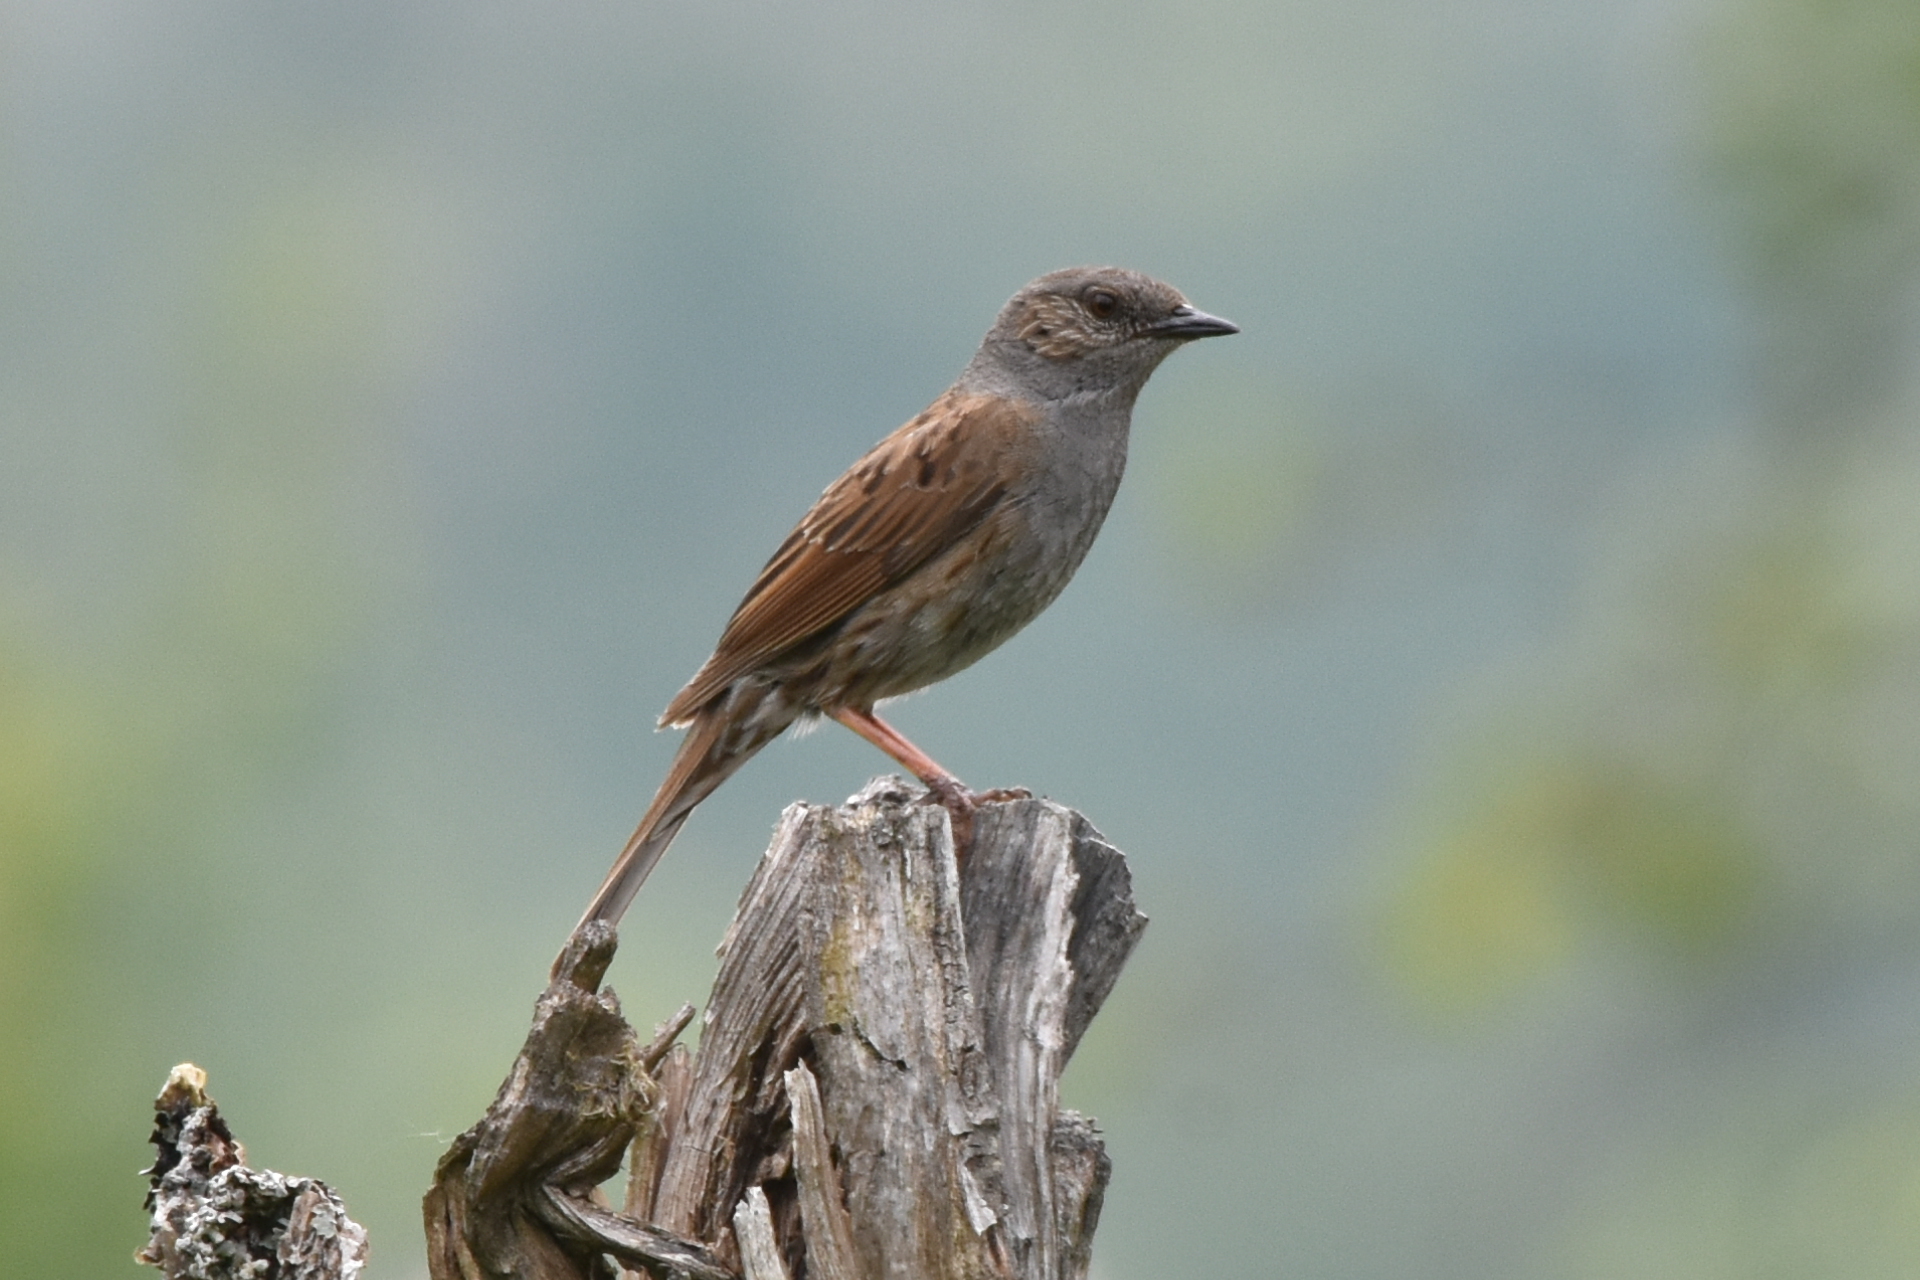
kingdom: Animalia
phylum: Chordata
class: Aves
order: Passeriformes
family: Prunellidae
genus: Prunella
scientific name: Prunella modularis
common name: Dunnock
